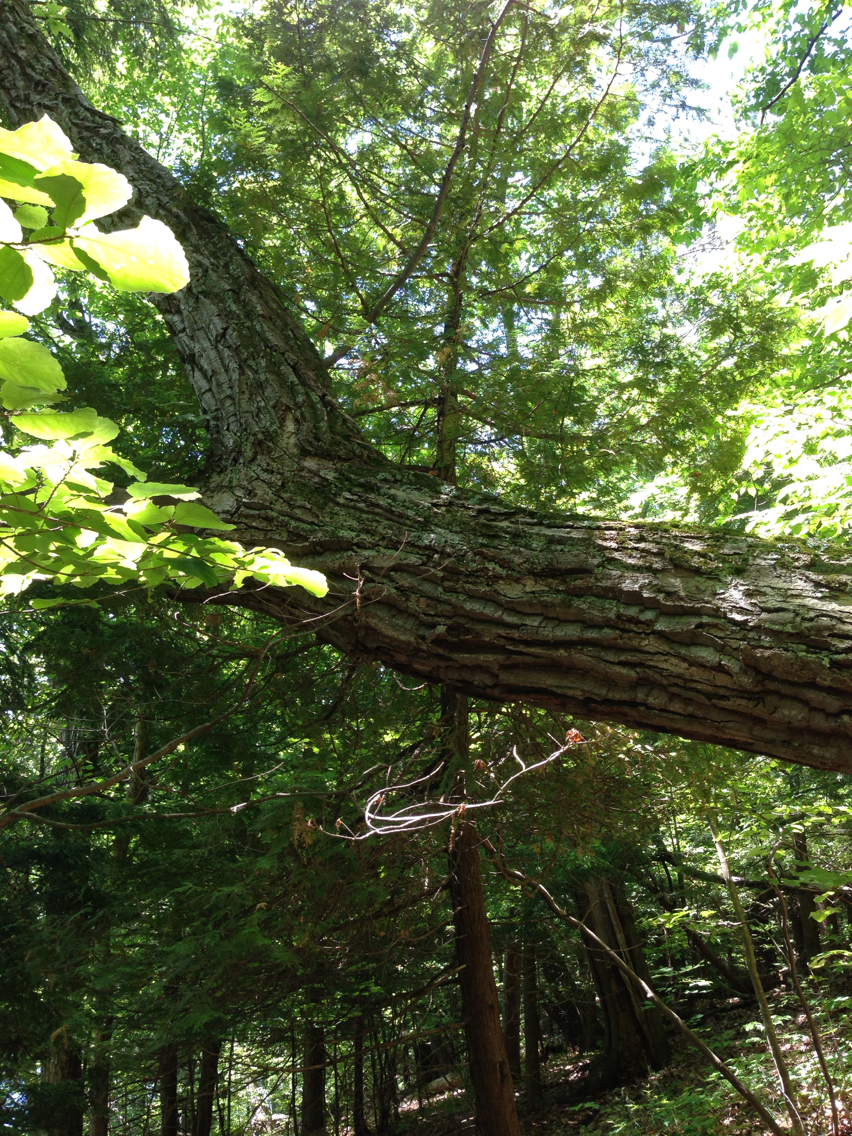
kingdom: Plantae
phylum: Tracheophyta
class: Magnoliopsida
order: Fagales
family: Fagaceae
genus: Quercus
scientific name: Quercus montana
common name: Chestnut oak
